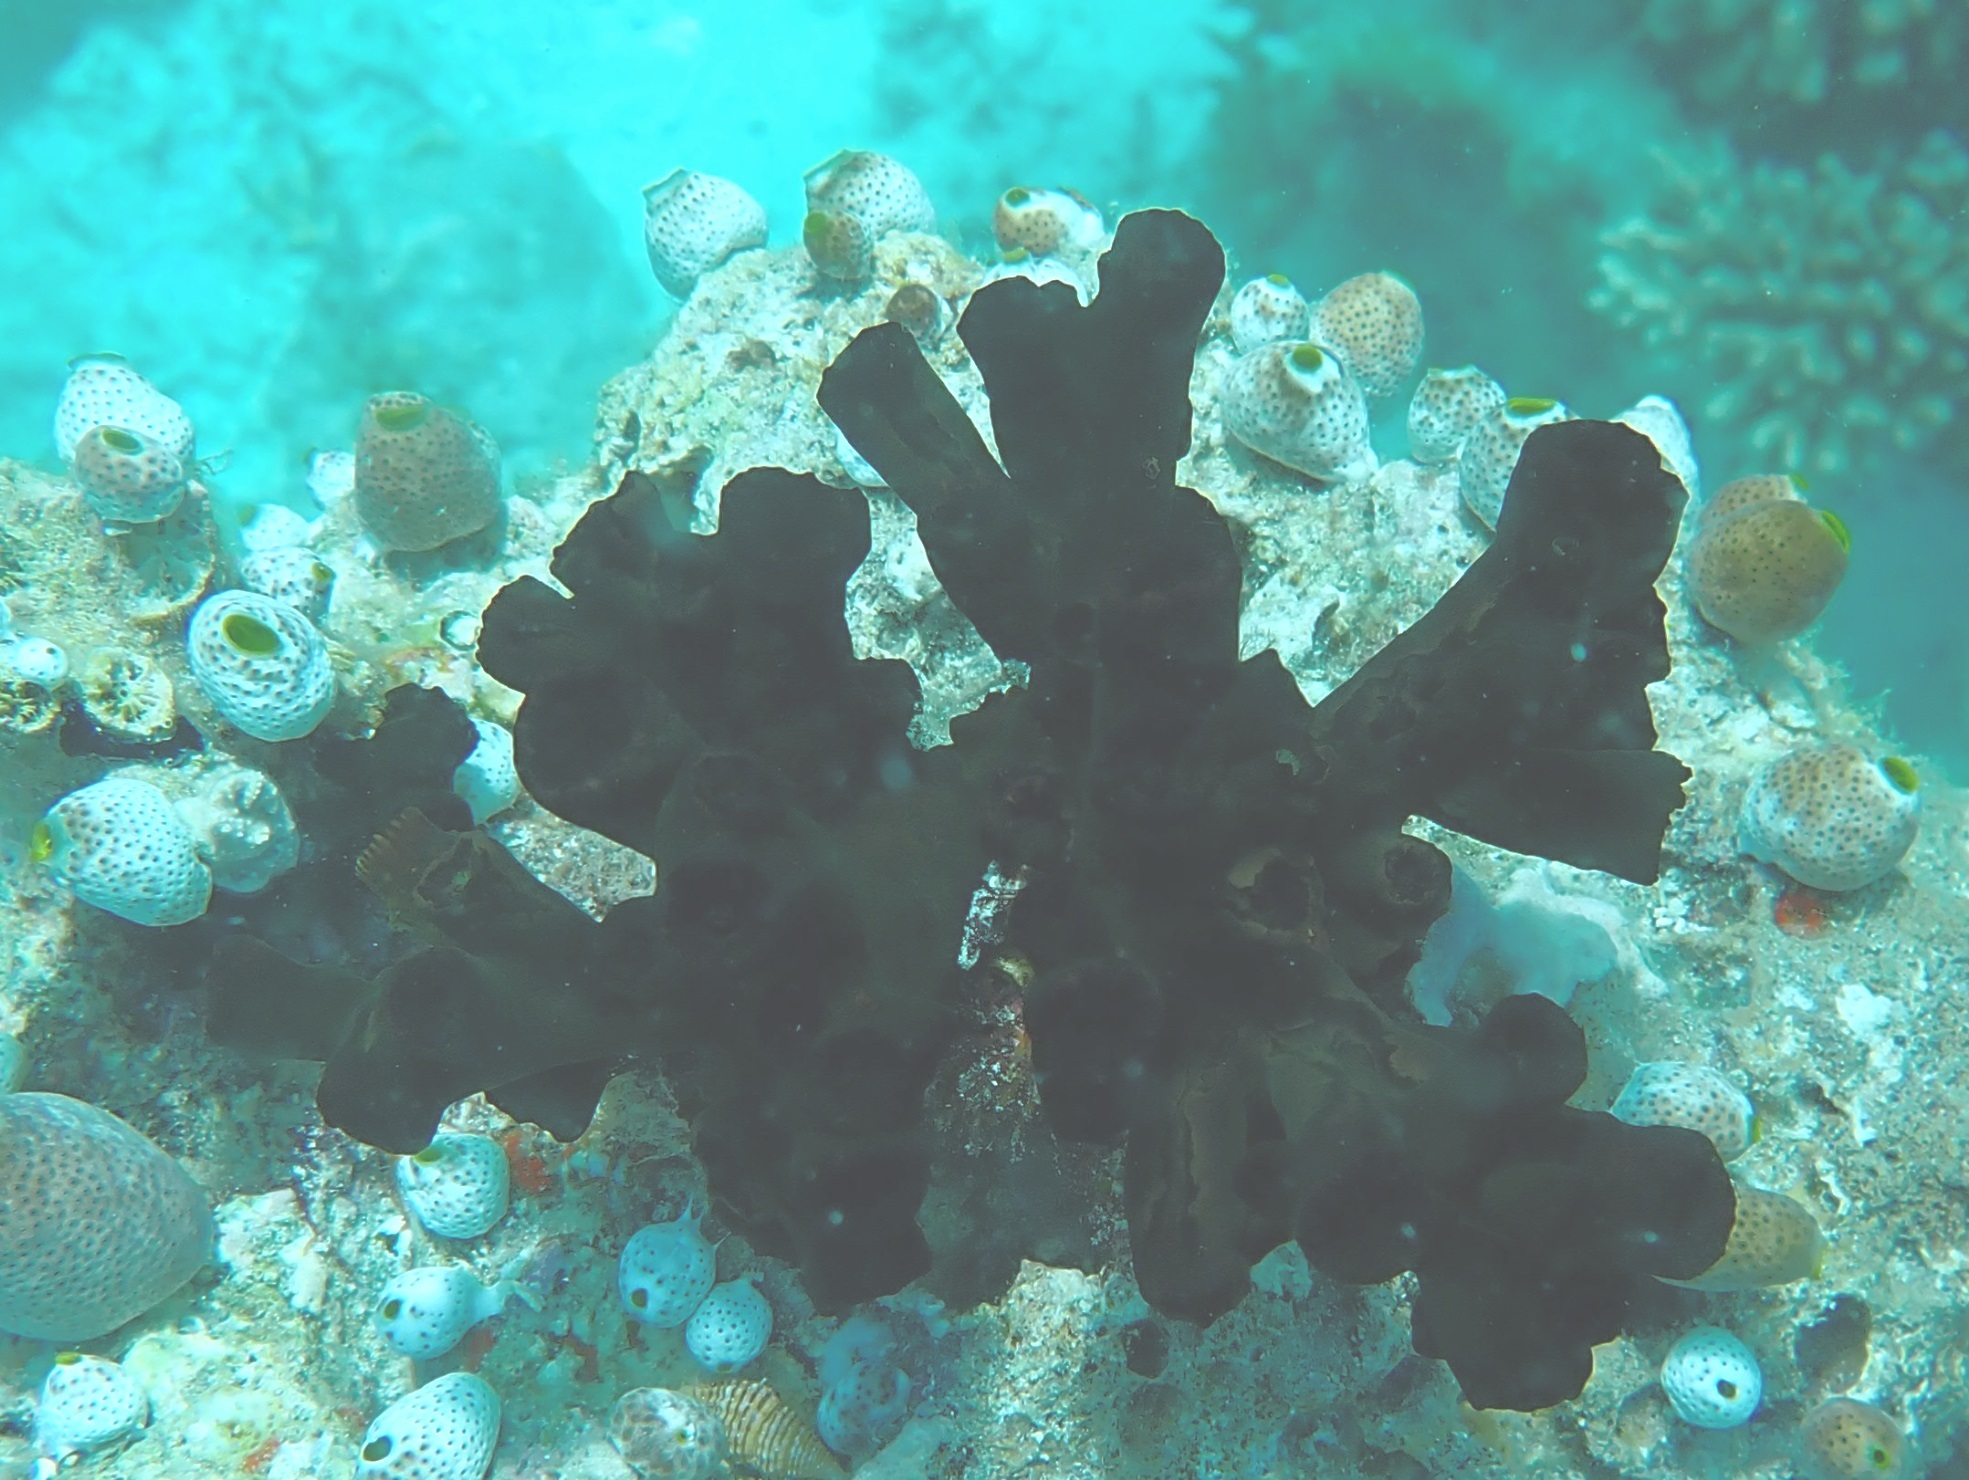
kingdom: Animalia
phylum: Cnidaria
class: Anthozoa
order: Scleractinia
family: Dendrophylliidae
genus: Tubastraea
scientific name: Tubastraea micranthus
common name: Black sun coral
